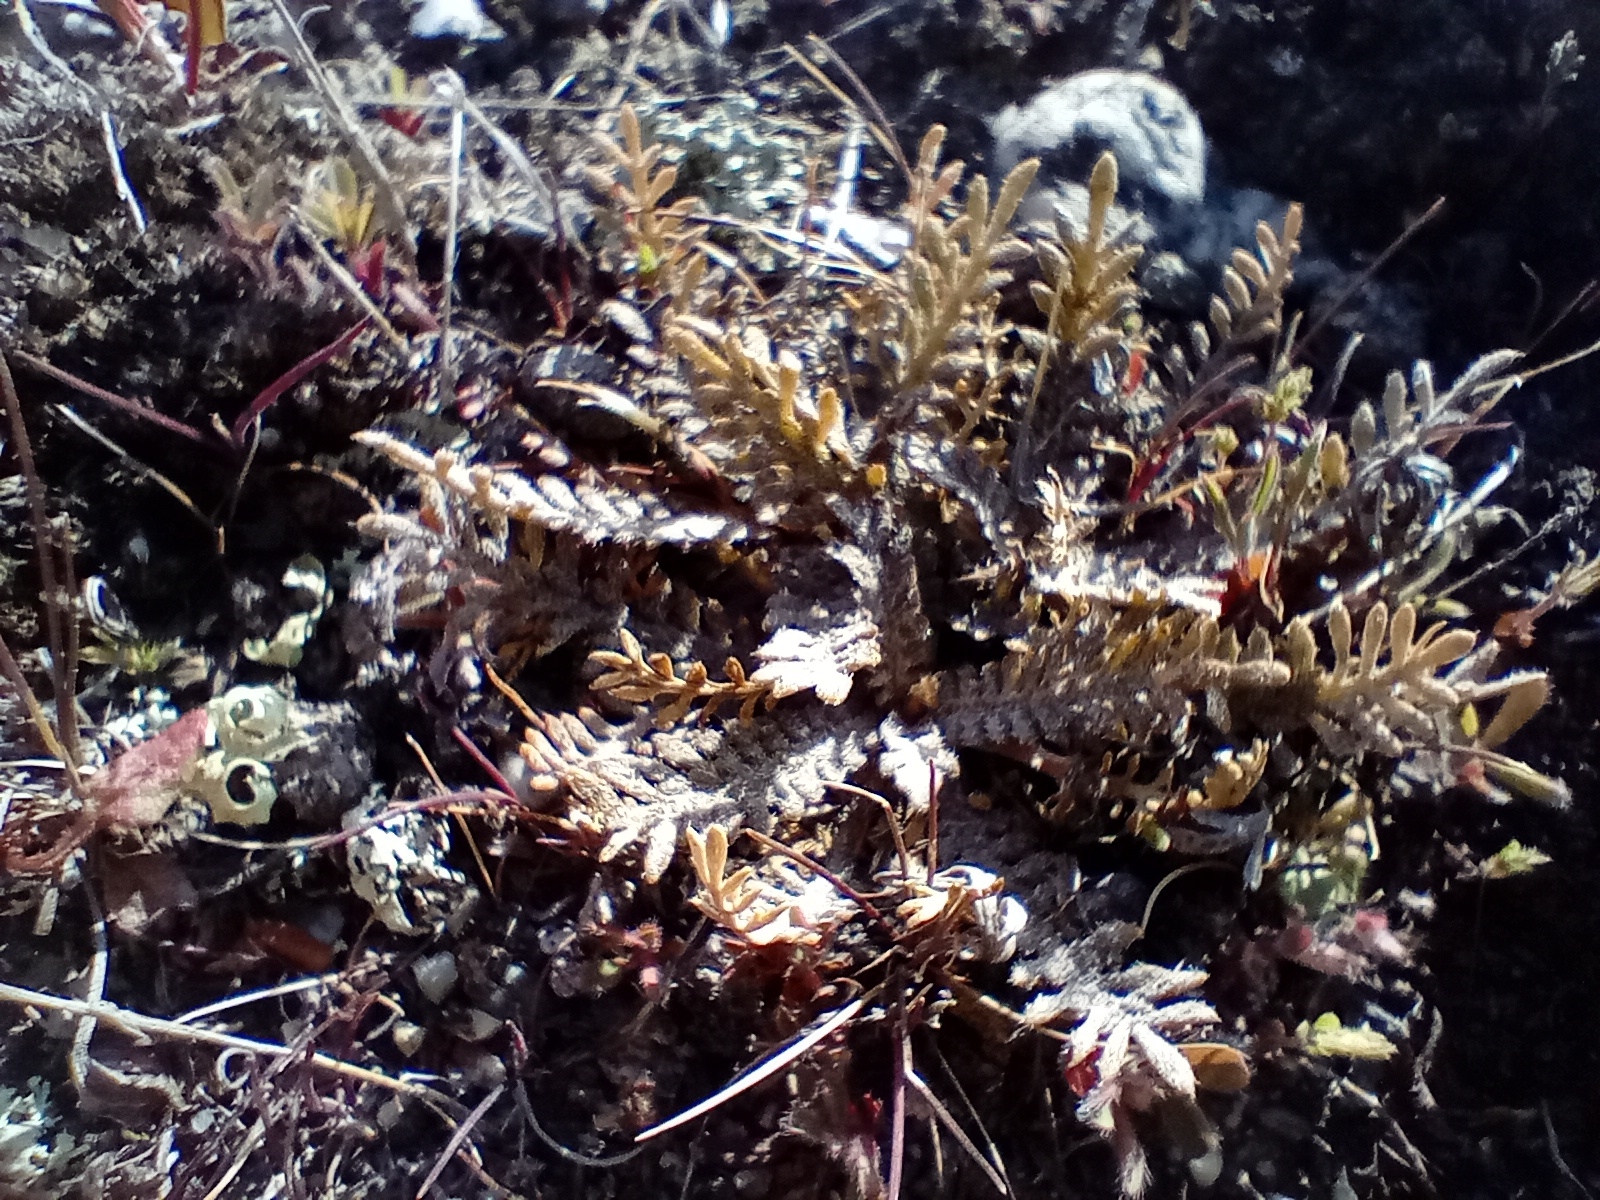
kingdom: Plantae
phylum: Tracheophyta
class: Magnoliopsida
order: Brassicales
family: Brassicaceae
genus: Lepidium
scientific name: Lepidium sisymbrioides
